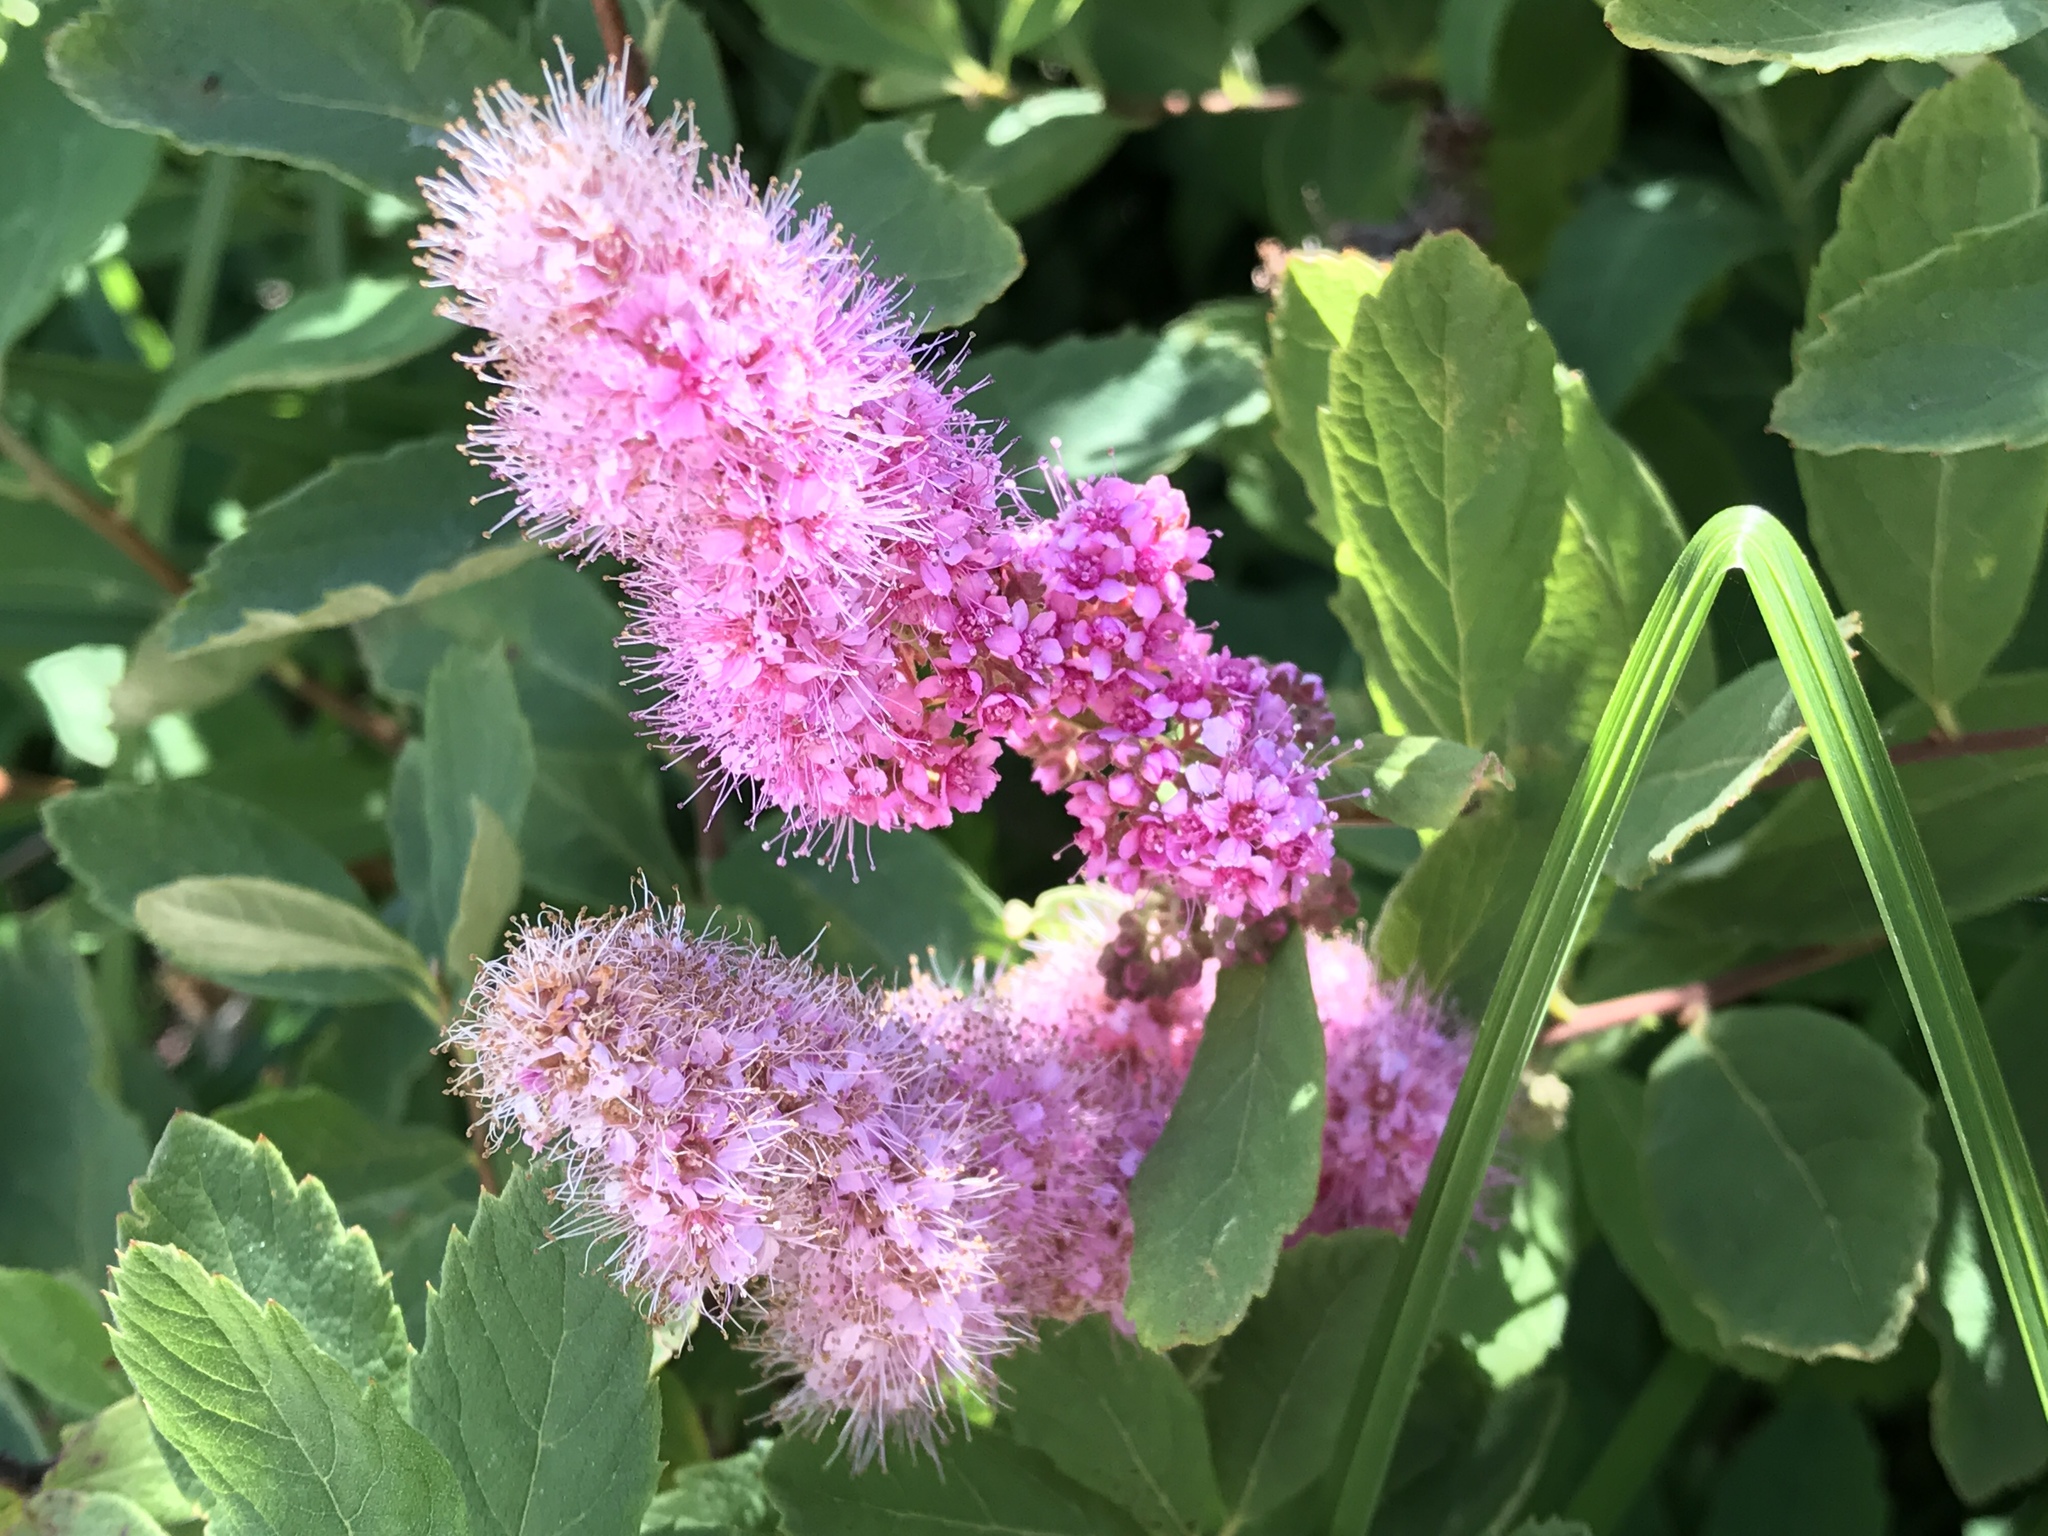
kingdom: Plantae
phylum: Tracheophyta
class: Magnoliopsida
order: Rosales
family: Rosaceae
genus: Spiraea
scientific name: Spiraea douglasii
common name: Steeplebush
